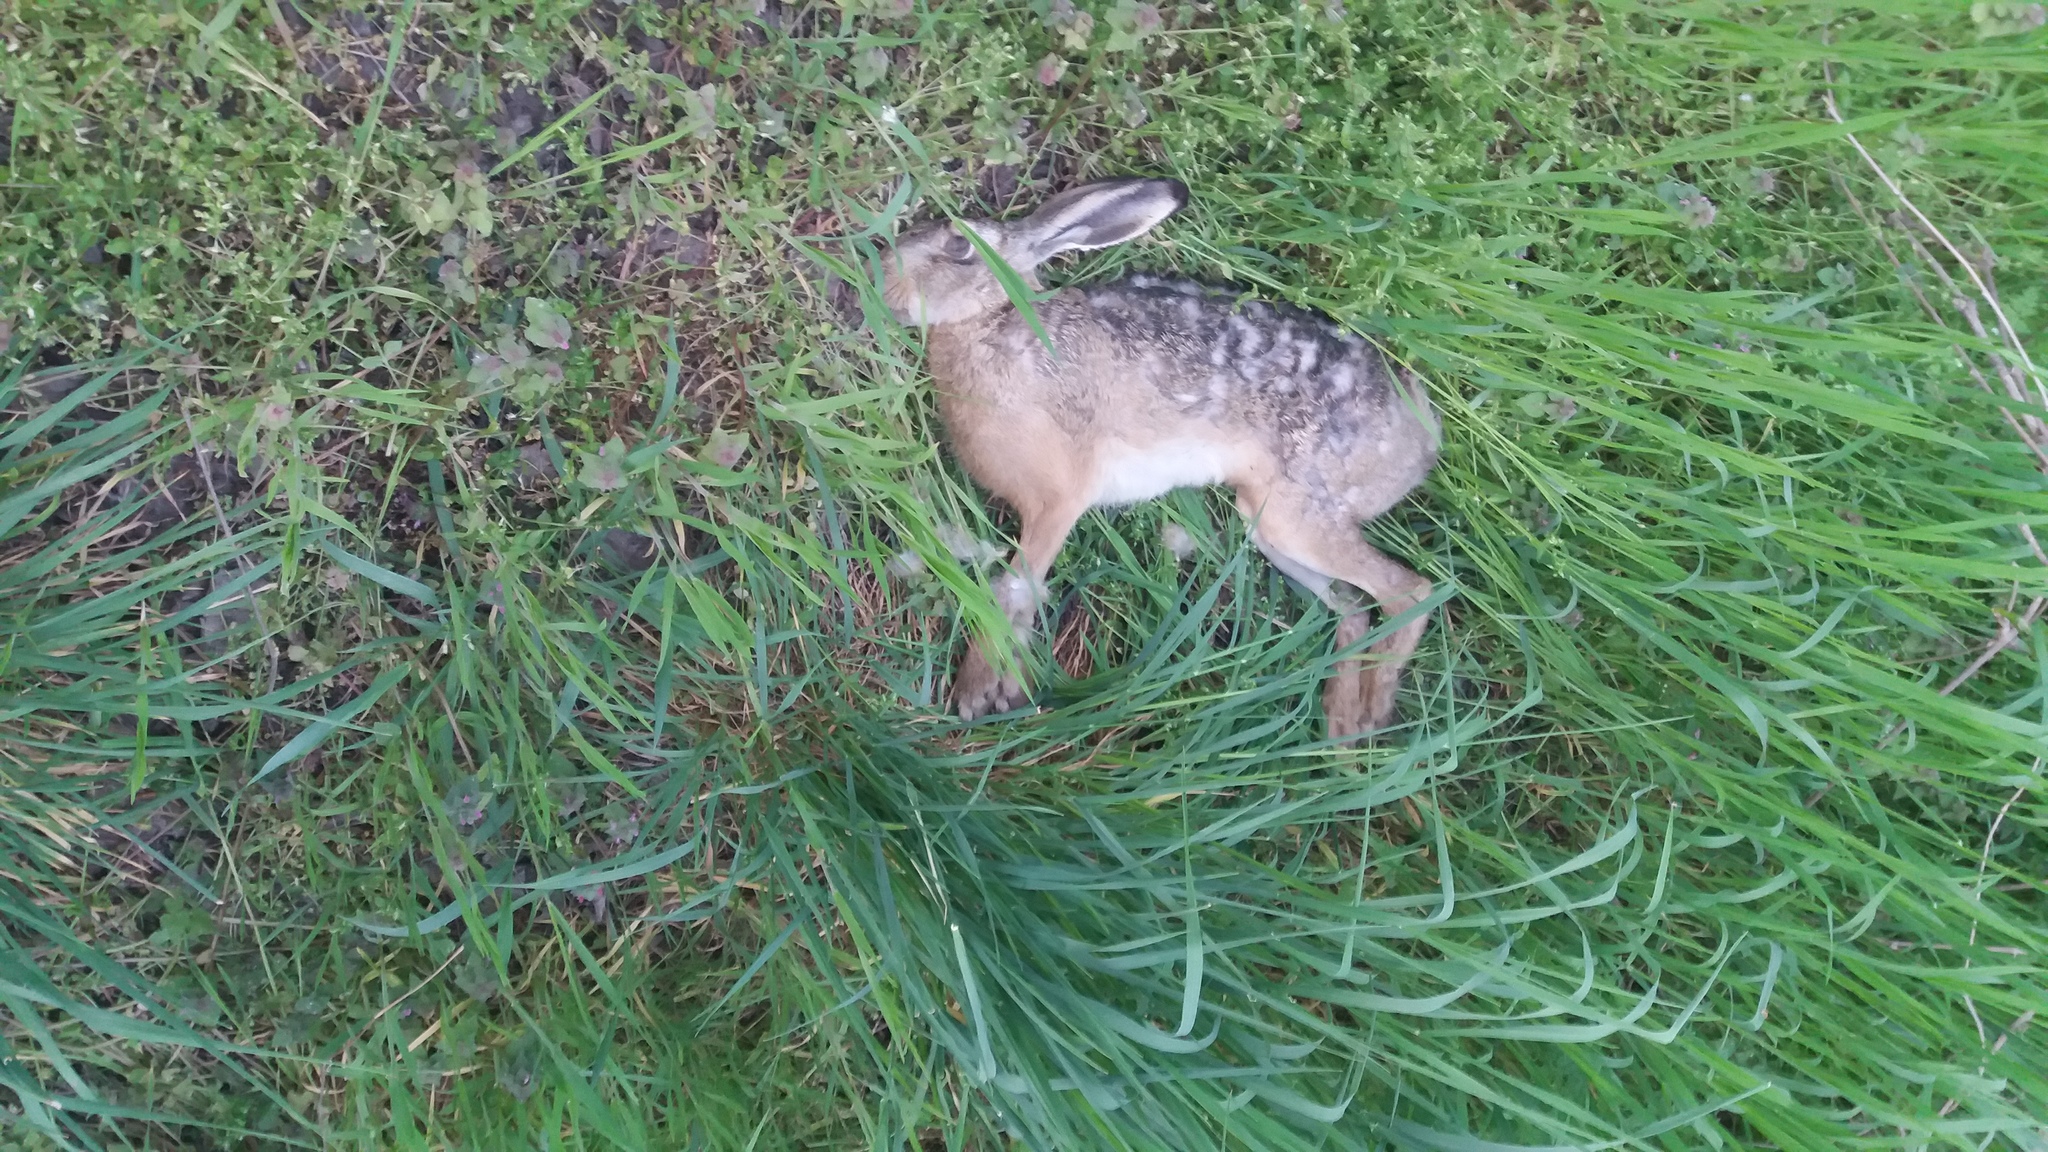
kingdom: Animalia
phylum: Chordata
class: Mammalia
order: Lagomorpha
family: Leporidae
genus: Lepus
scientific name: Lepus europaeus
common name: European hare
